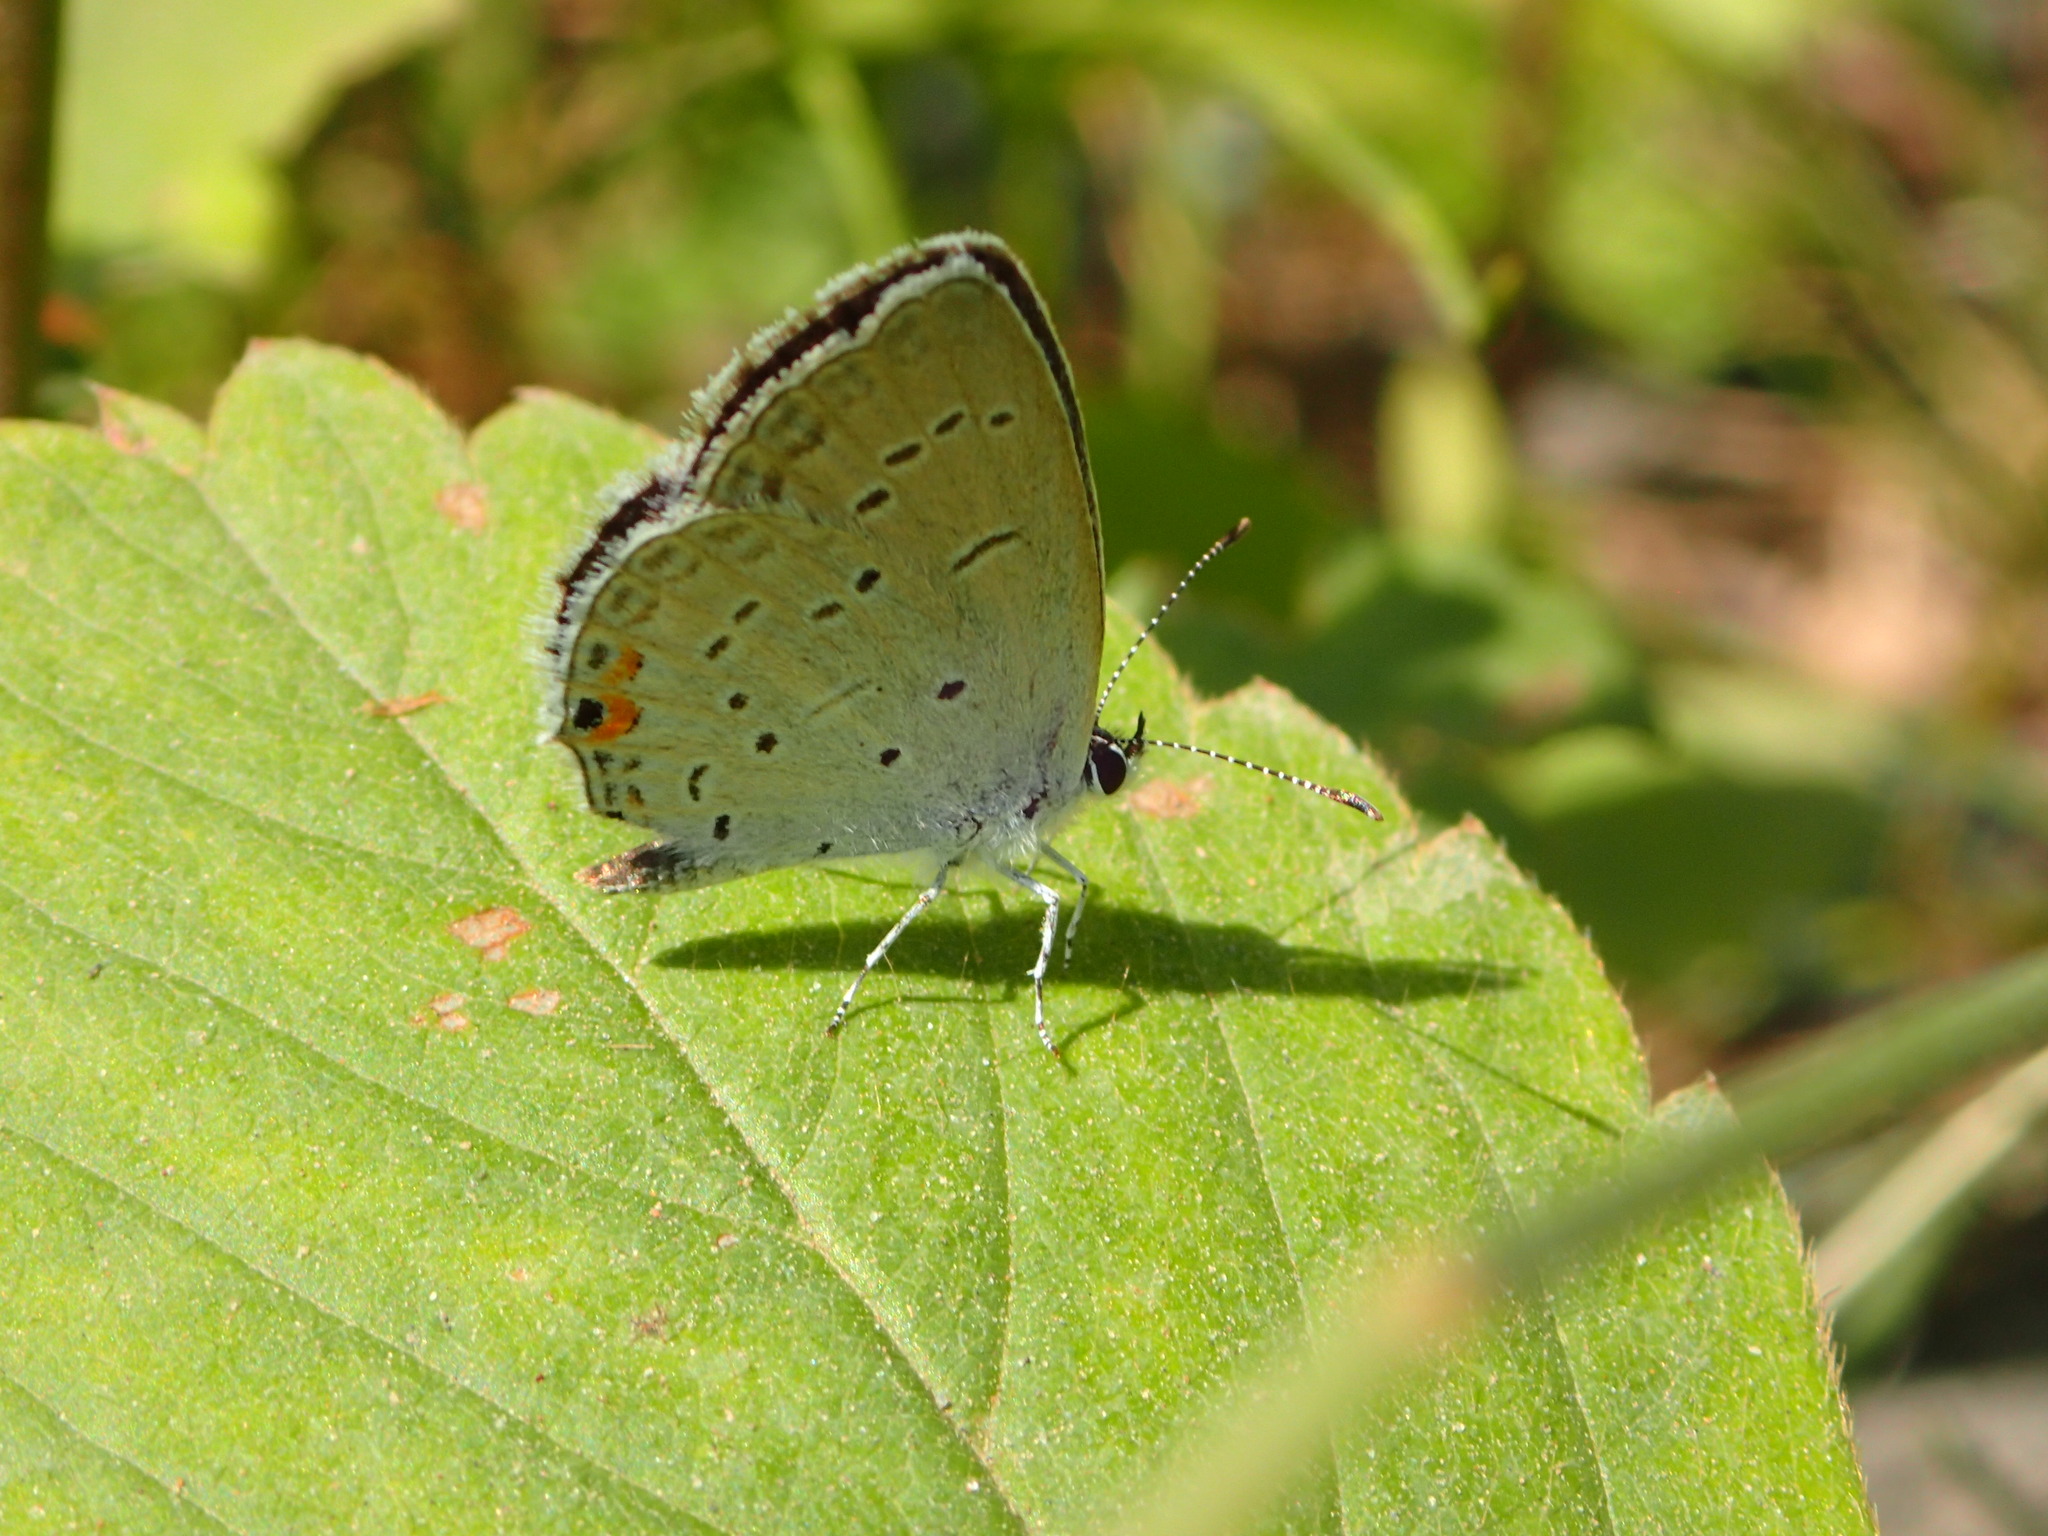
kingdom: Animalia
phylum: Arthropoda
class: Insecta
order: Lepidoptera
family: Lycaenidae
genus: Elkalyce
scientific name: Elkalyce comyntas
